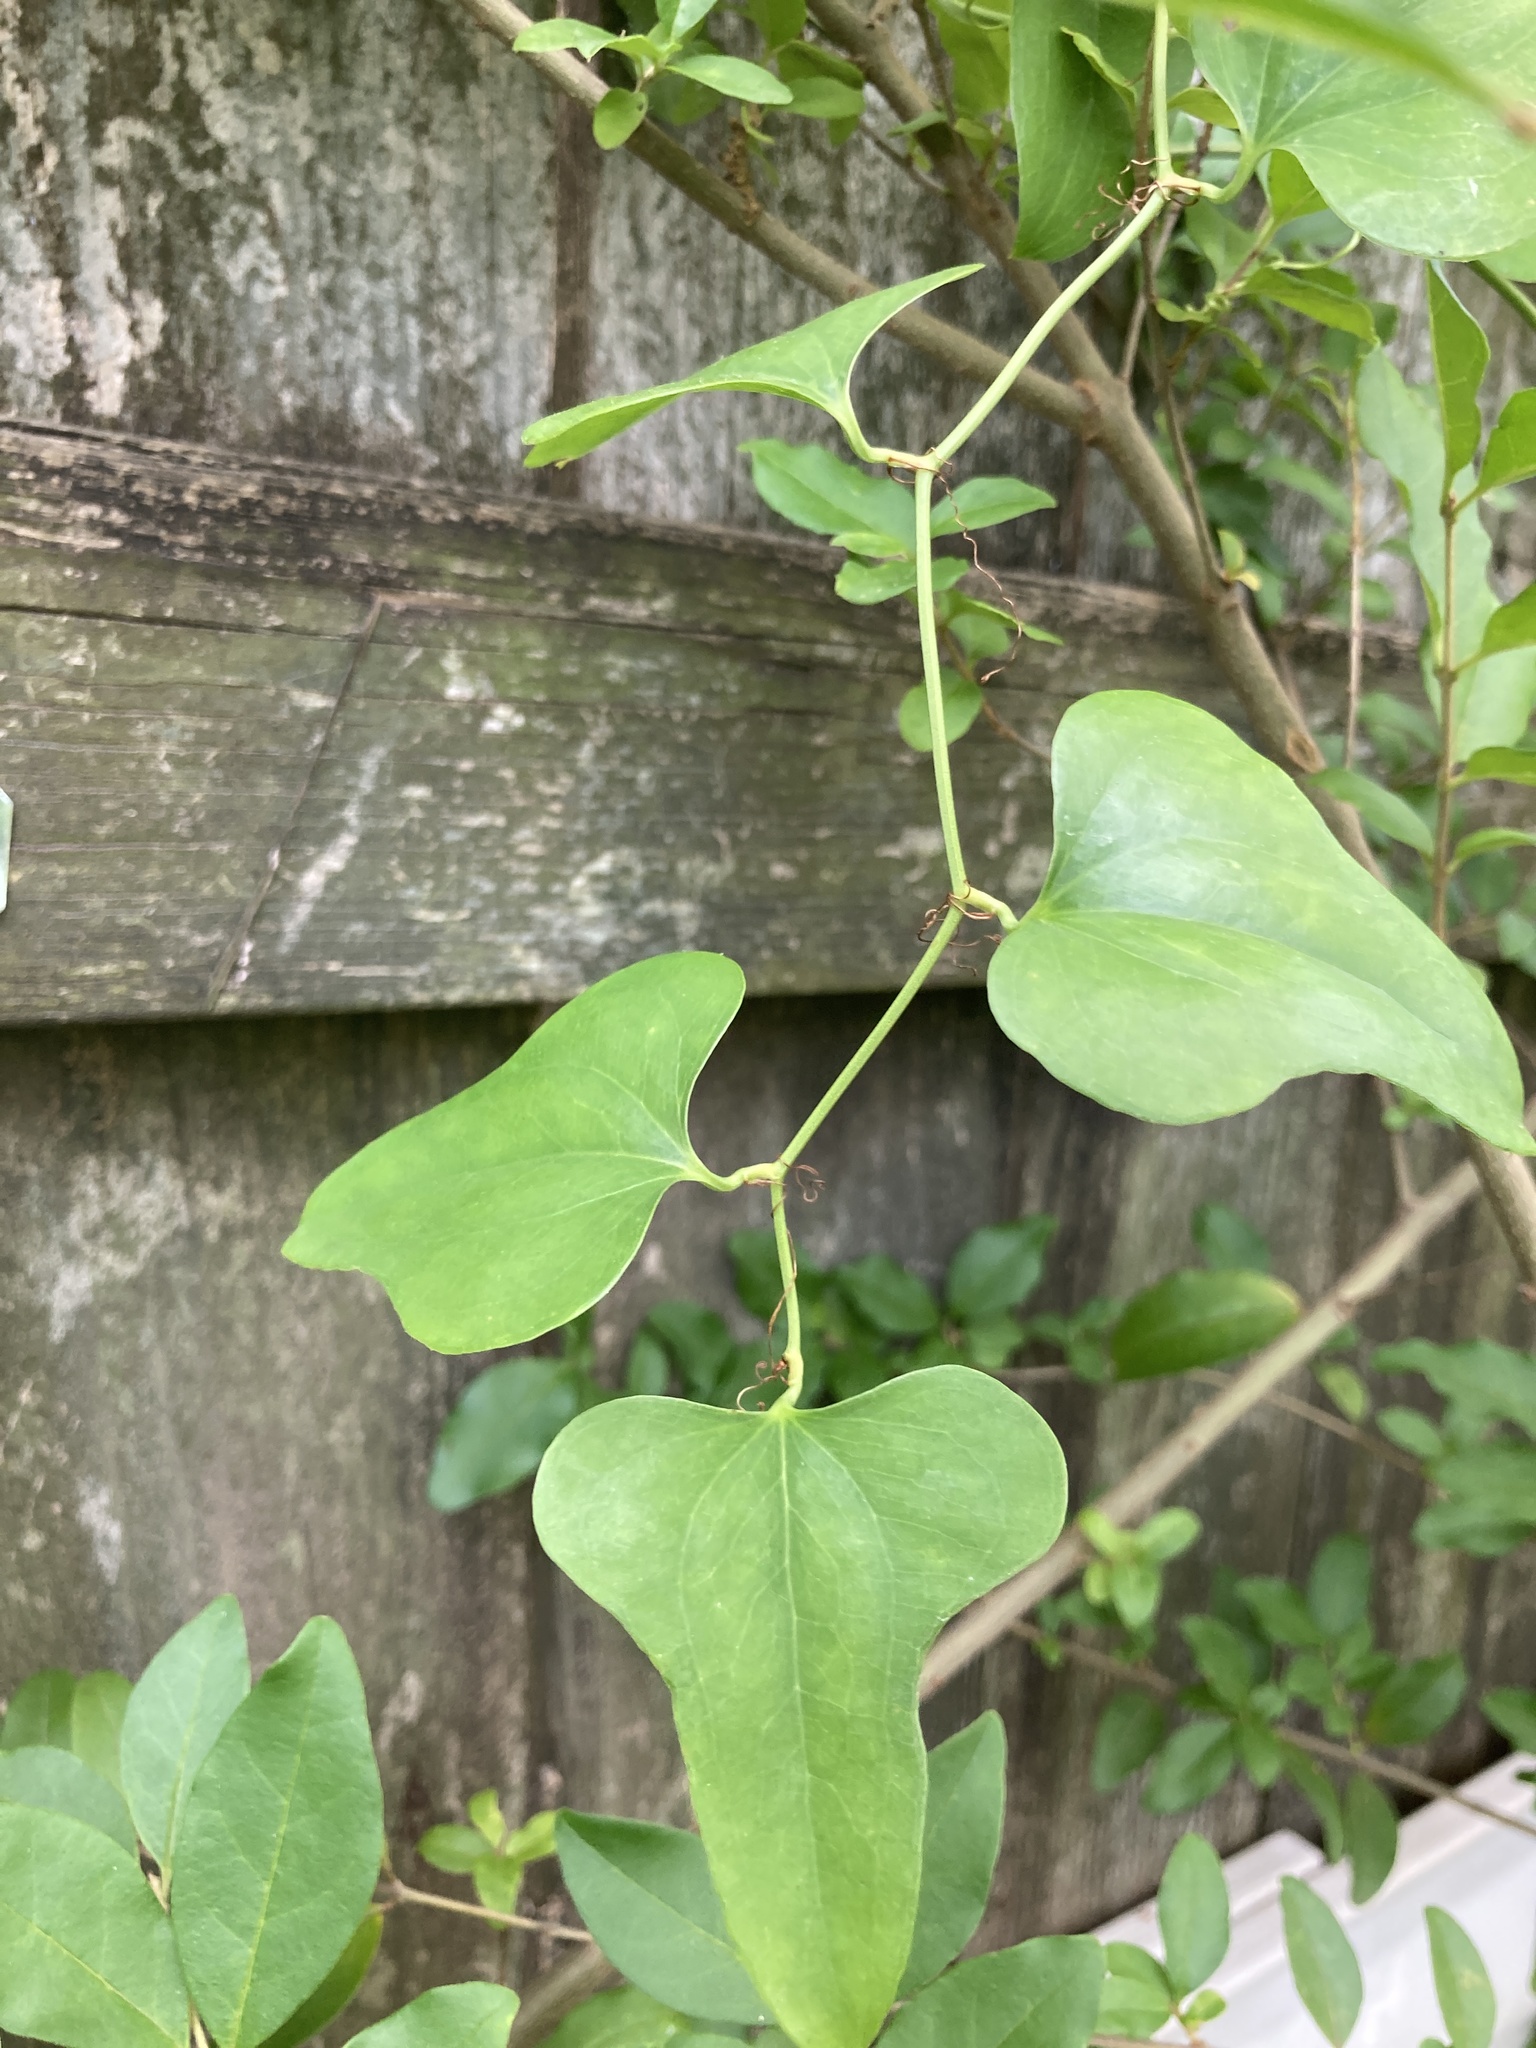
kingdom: Plantae
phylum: Tracheophyta
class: Liliopsida
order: Liliales
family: Smilacaceae
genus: Smilax
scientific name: Smilax bona-nox
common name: Catbrier
